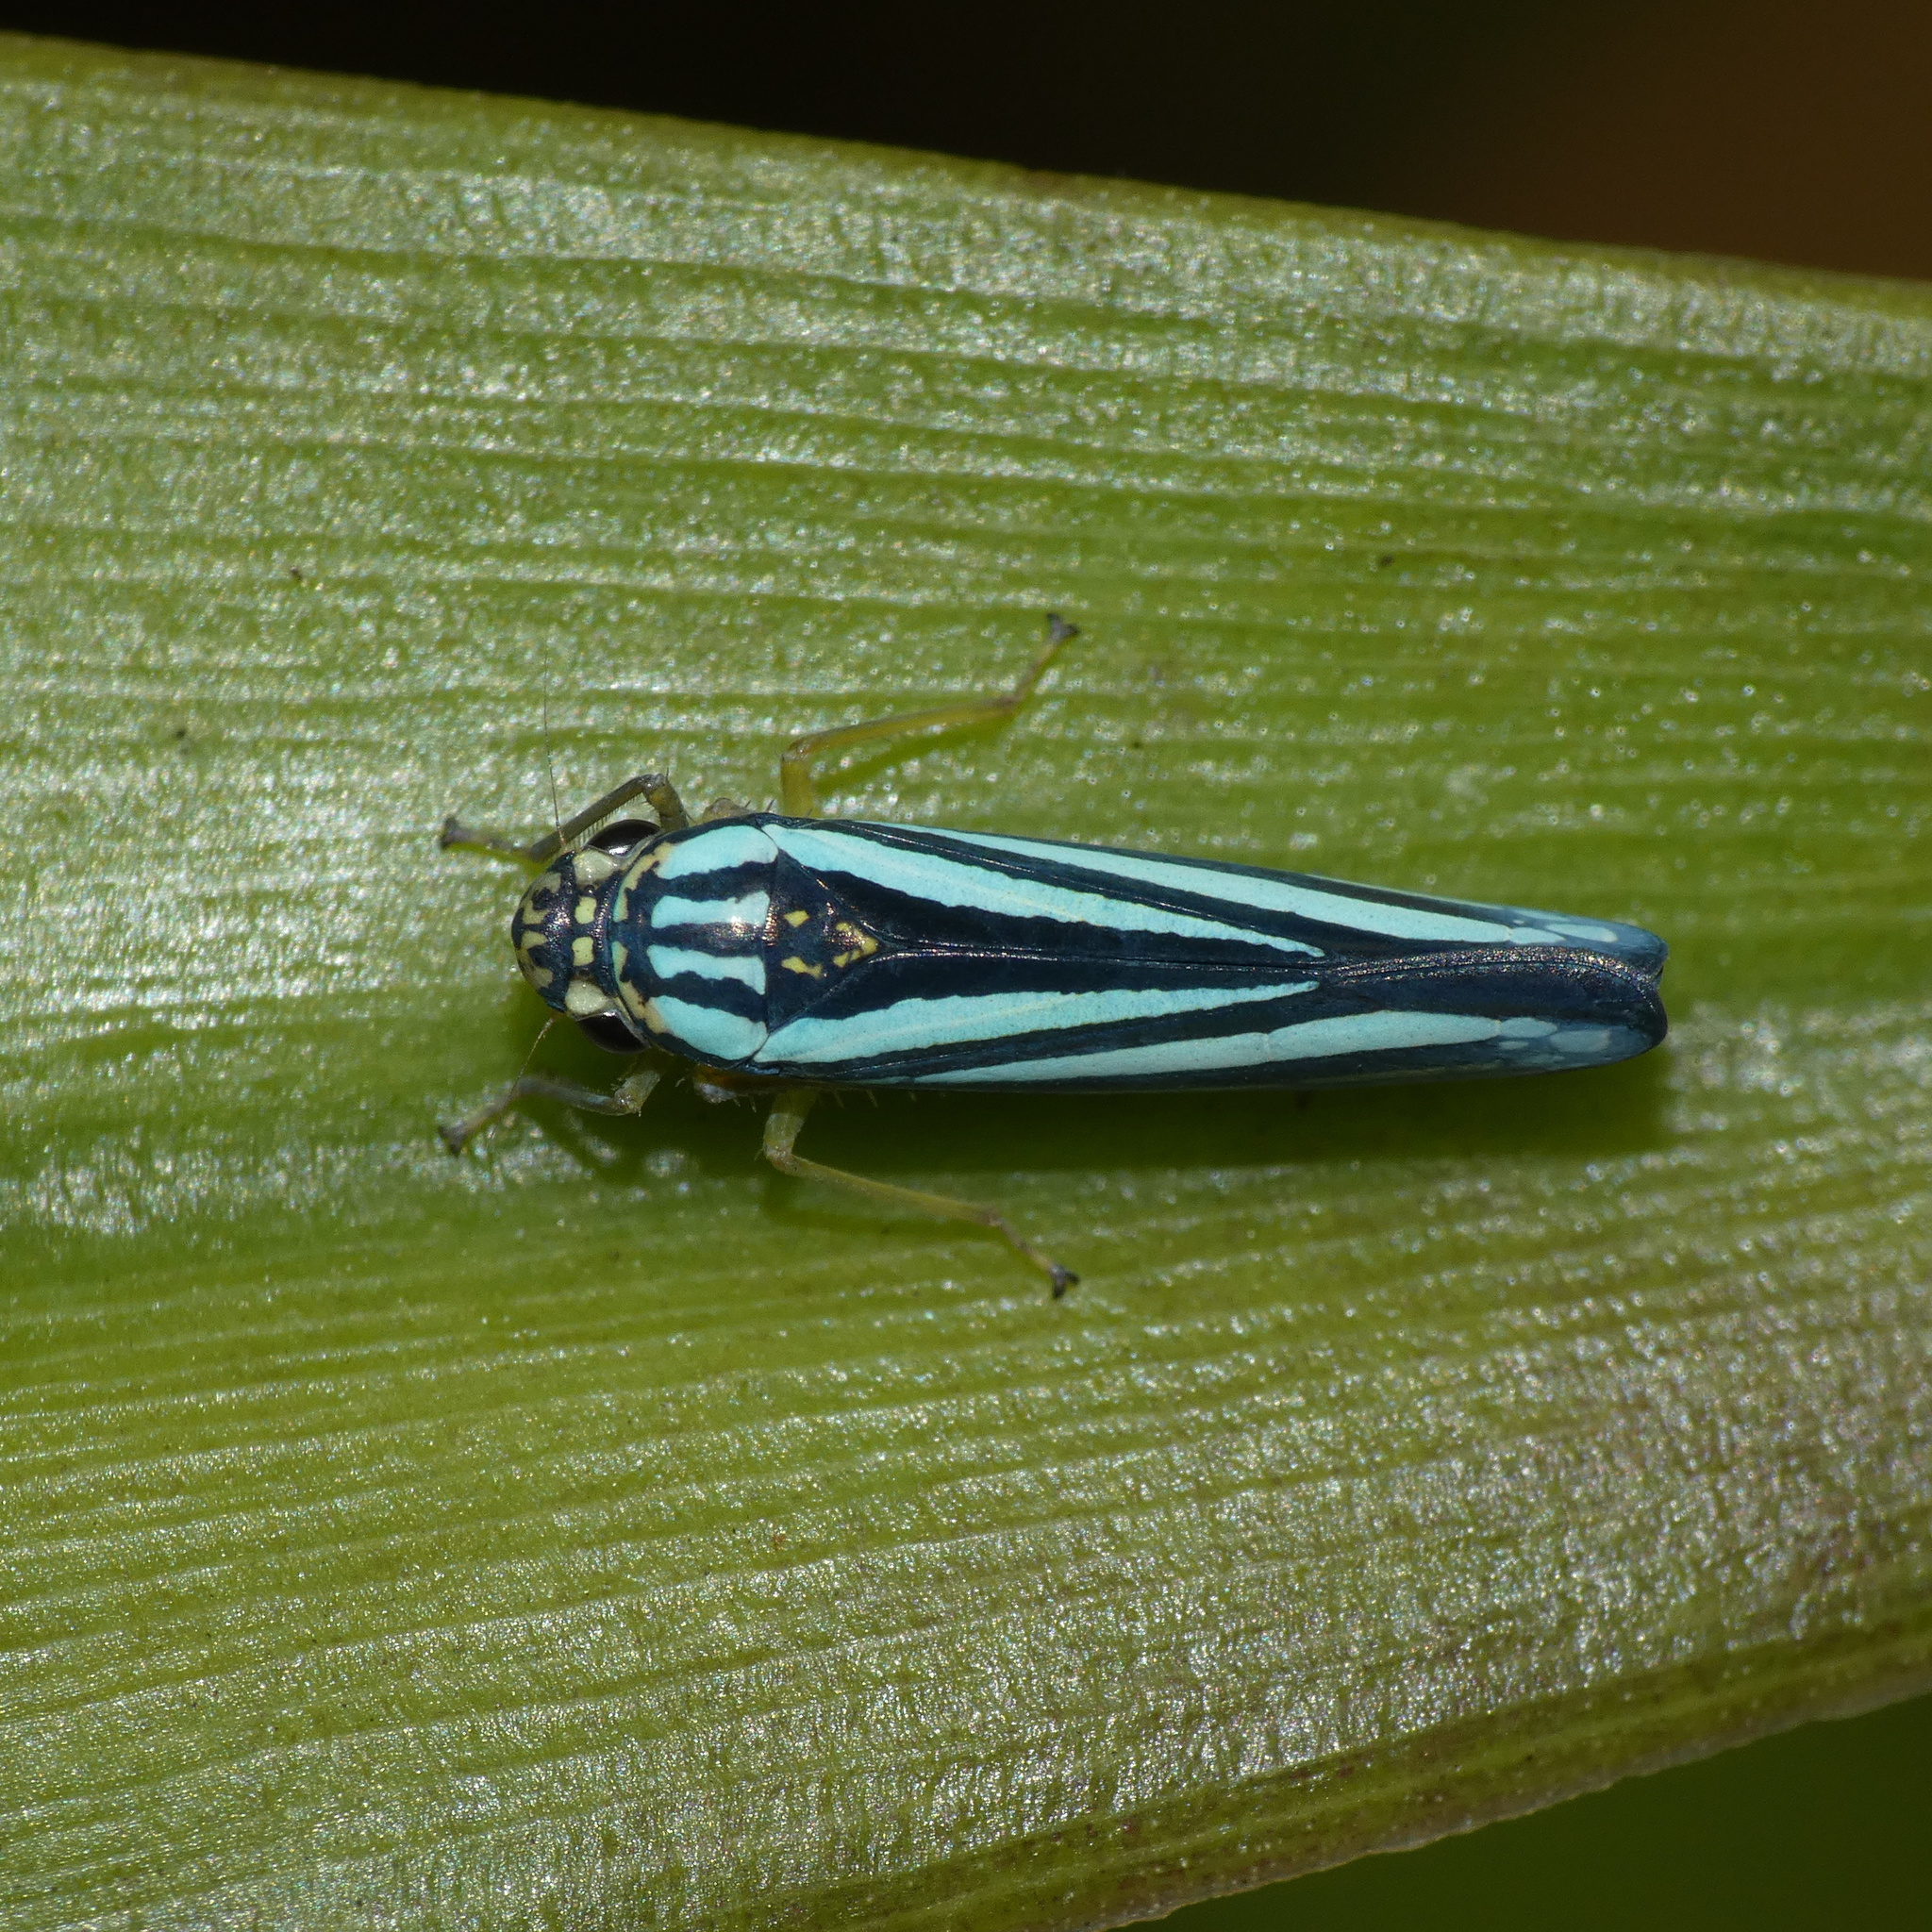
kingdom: Animalia
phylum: Arthropoda
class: Insecta
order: Hemiptera
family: Cicadellidae
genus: Tettigoniella
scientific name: Tettigoniella cosmopolita
